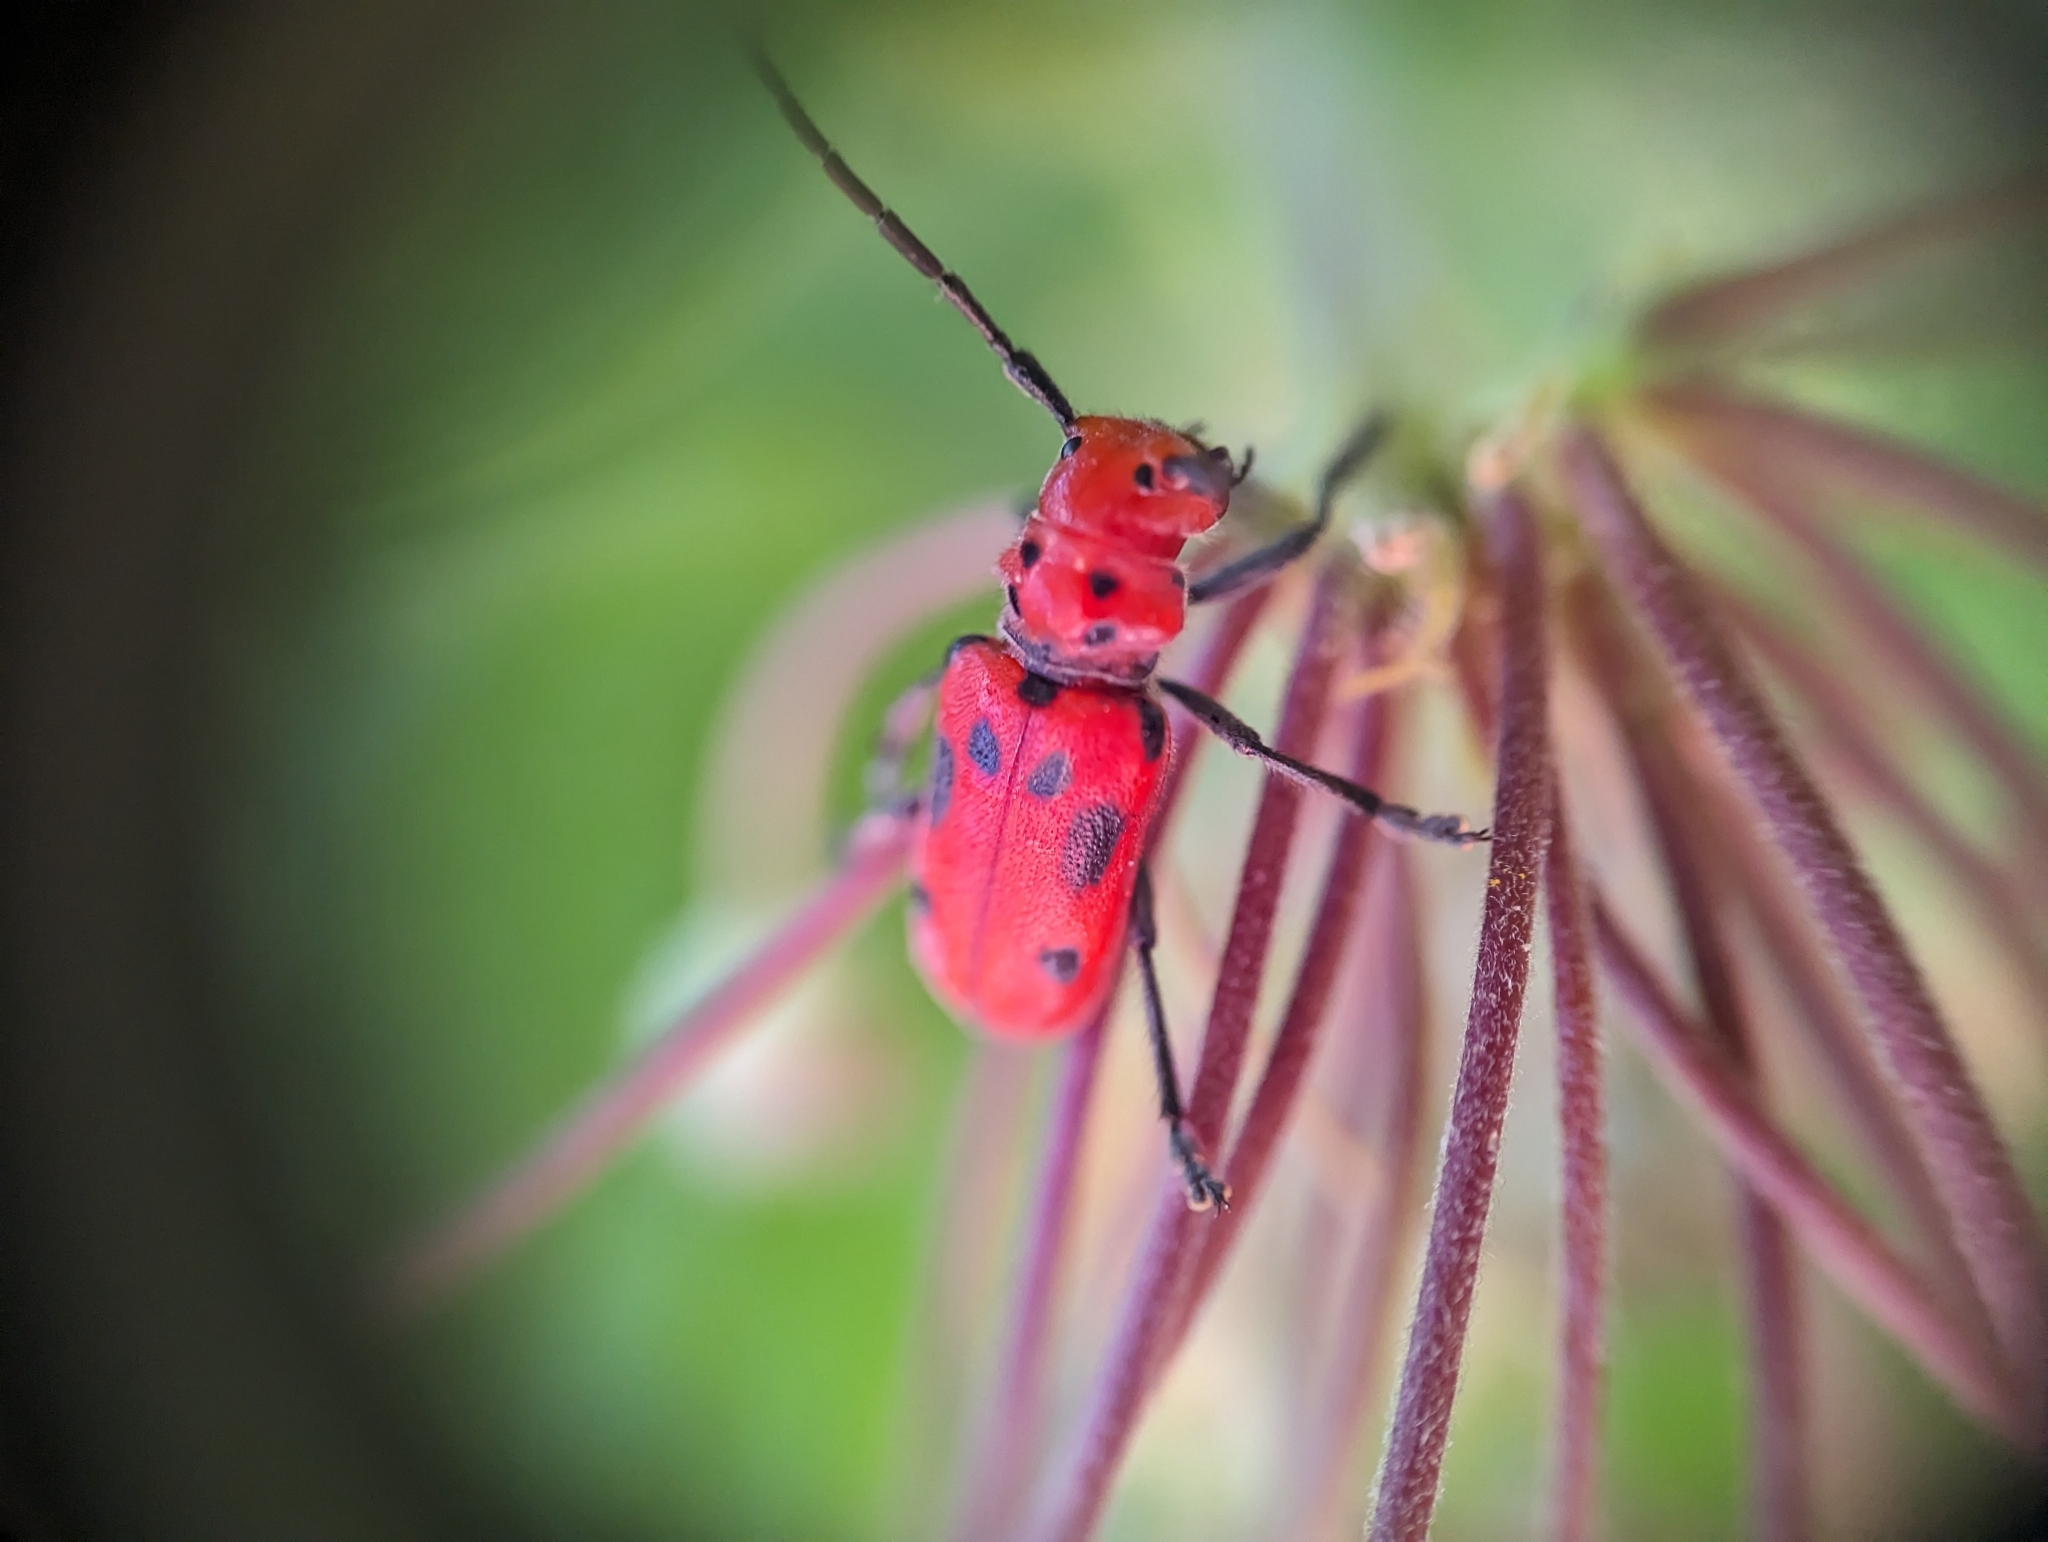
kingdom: Animalia
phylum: Arthropoda
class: Insecta
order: Coleoptera
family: Cerambycidae
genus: Tetraopes
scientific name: Tetraopes tetrophthalmus
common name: Red milkweed beetle
